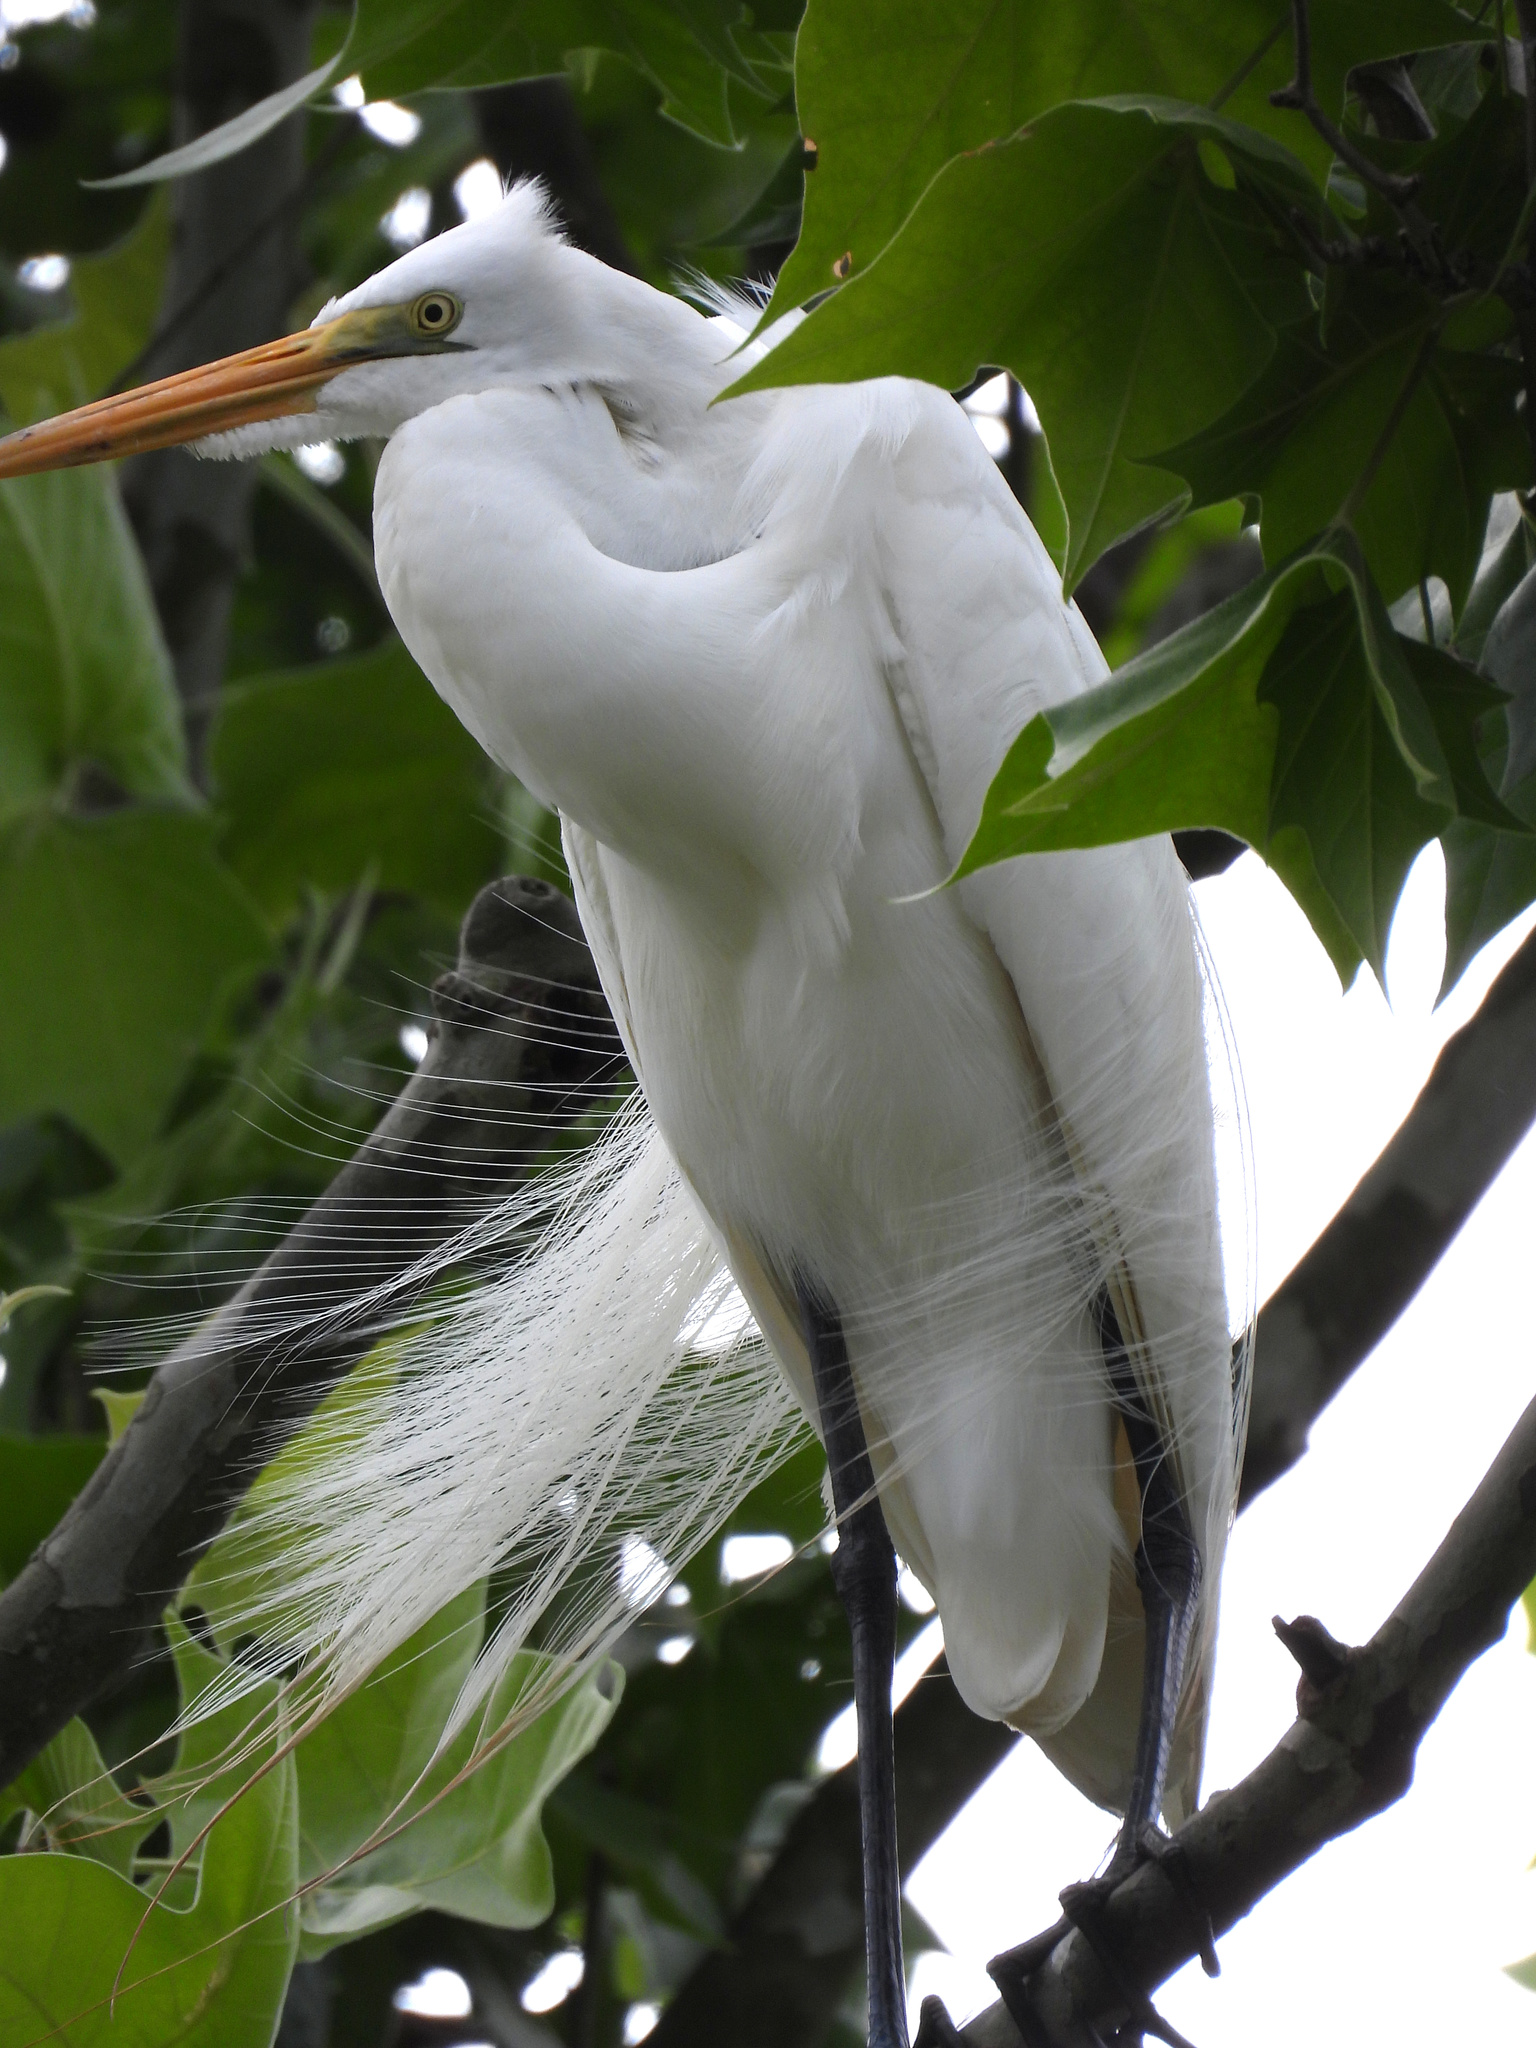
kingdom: Animalia
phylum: Chordata
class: Aves
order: Pelecaniformes
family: Ardeidae
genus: Ardea
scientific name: Ardea alba
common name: Great egret
